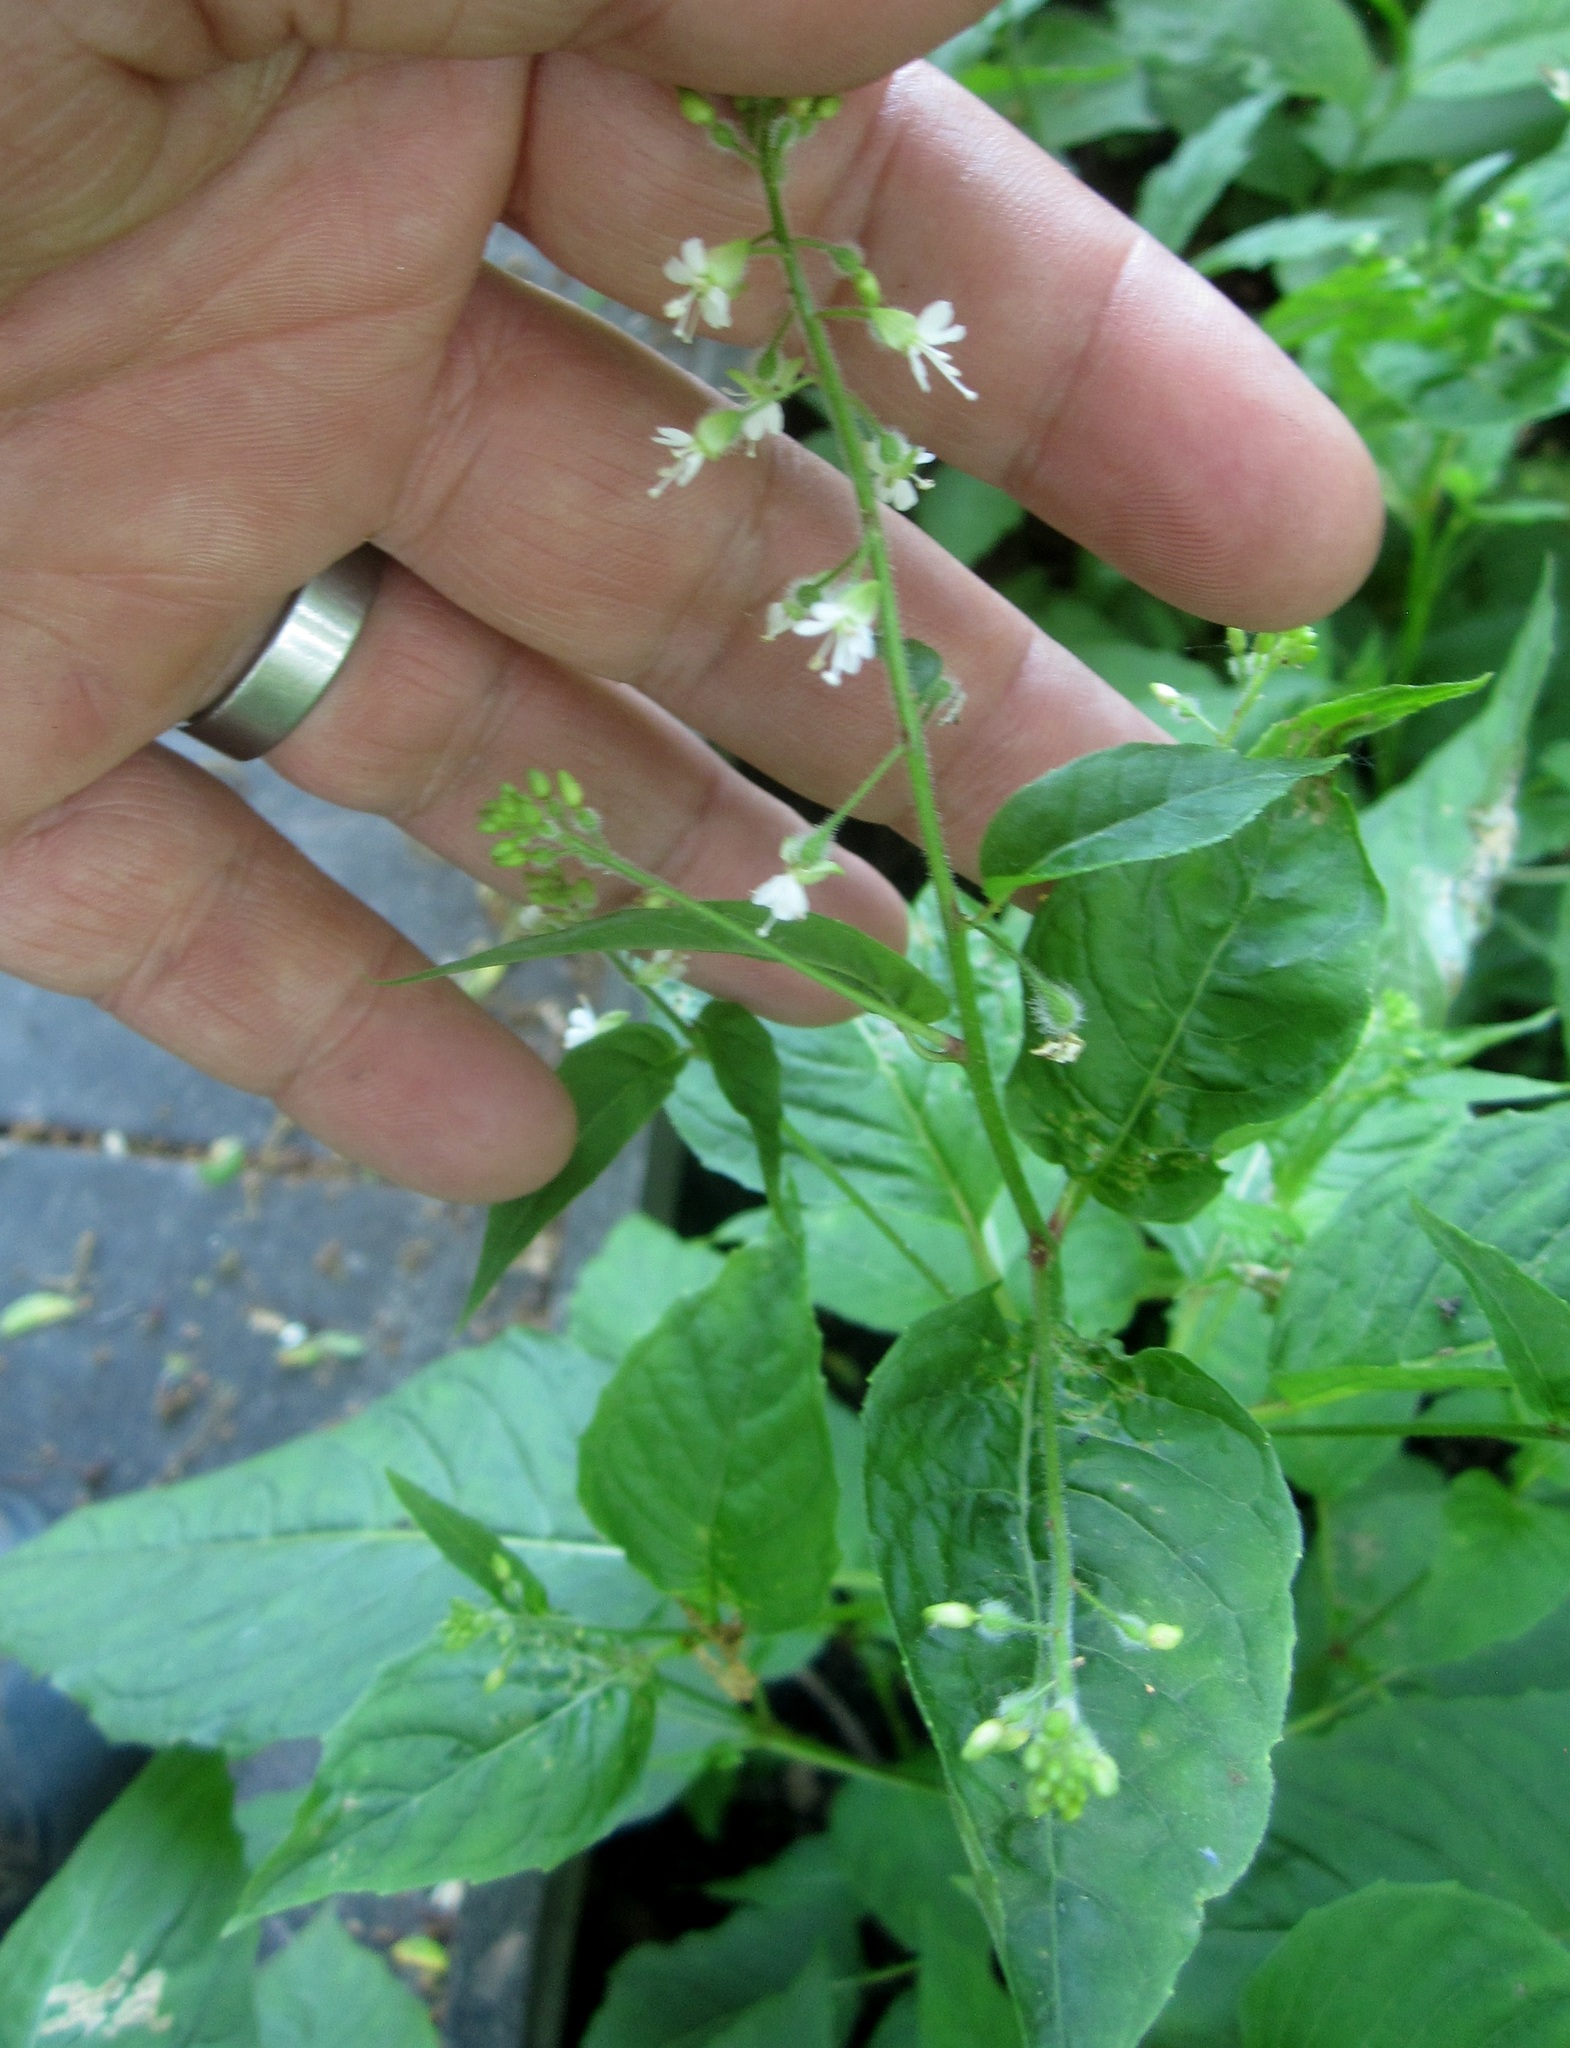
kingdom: Plantae
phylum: Tracheophyta
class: Magnoliopsida
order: Myrtales
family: Onagraceae
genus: Circaea
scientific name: Circaea canadensis
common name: Broad-leaved enchanter's nightshade
